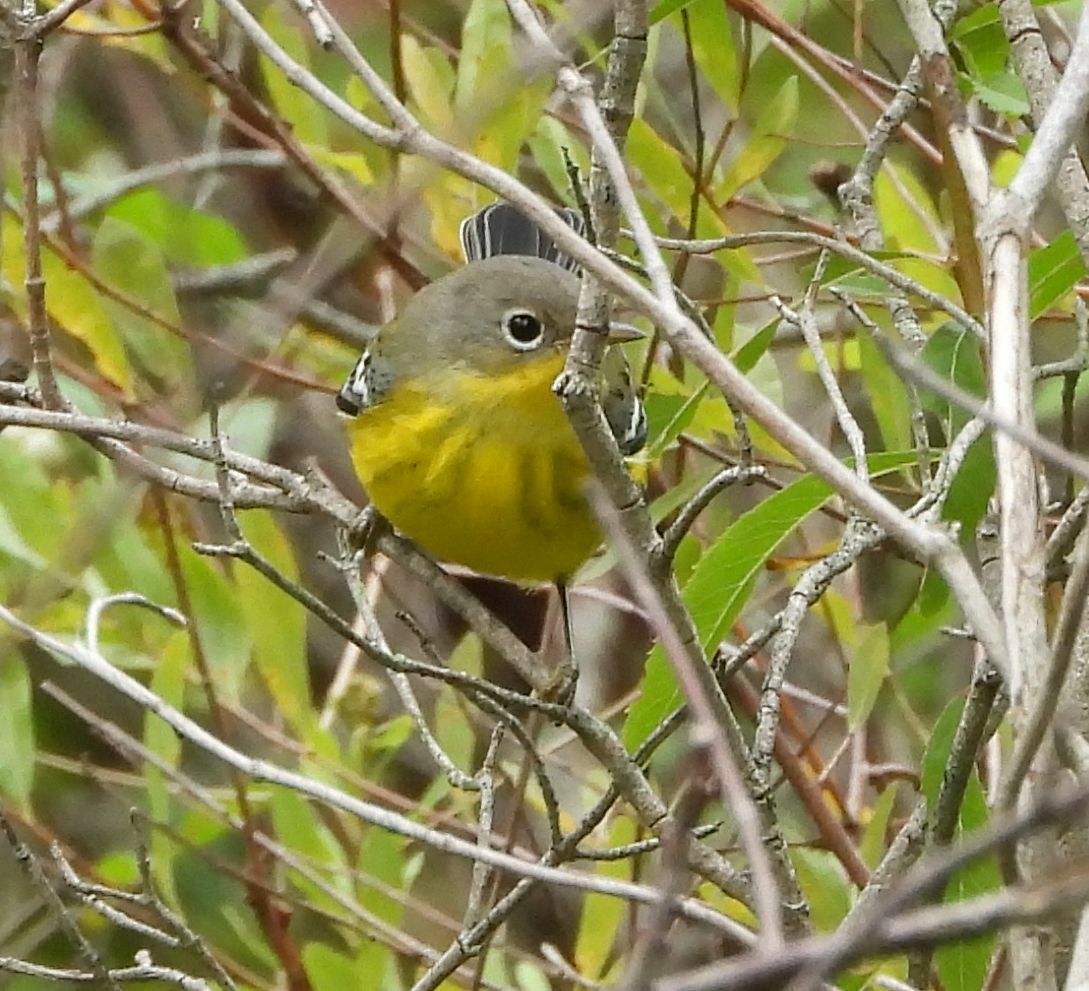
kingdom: Animalia
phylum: Chordata
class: Aves
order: Passeriformes
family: Parulidae
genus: Setophaga
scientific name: Setophaga magnolia
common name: Magnolia warbler
